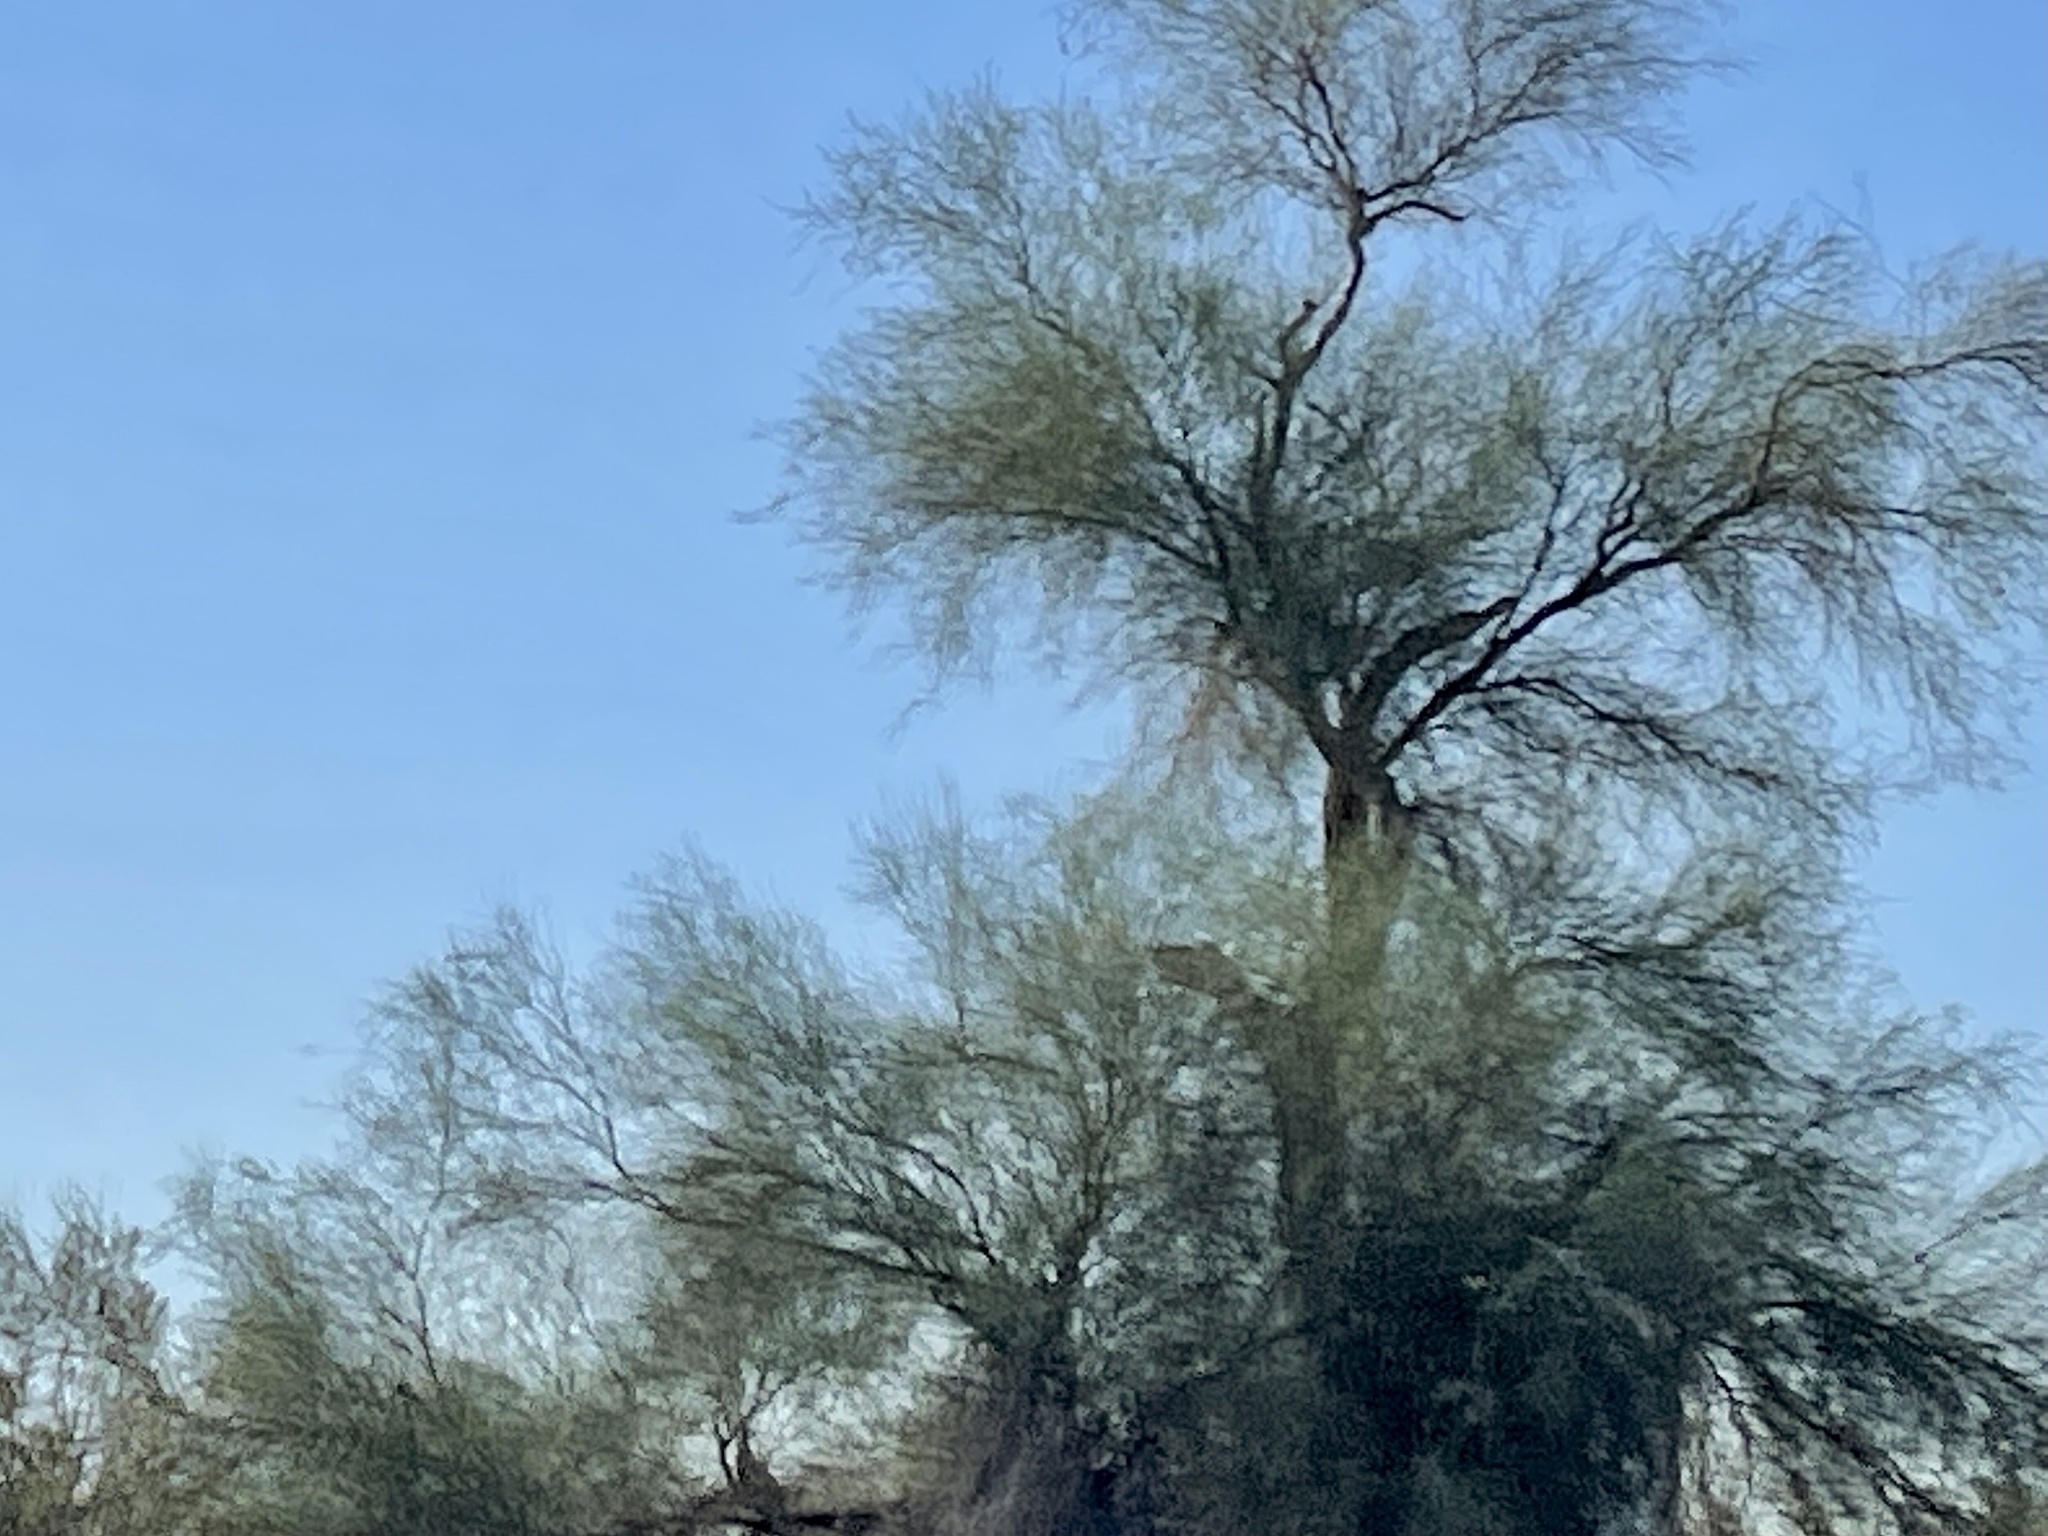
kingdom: Plantae
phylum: Tracheophyta
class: Magnoliopsida
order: Fabales
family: Fabaceae
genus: Parkinsonia
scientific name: Parkinsonia florida
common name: Blue paloverde
